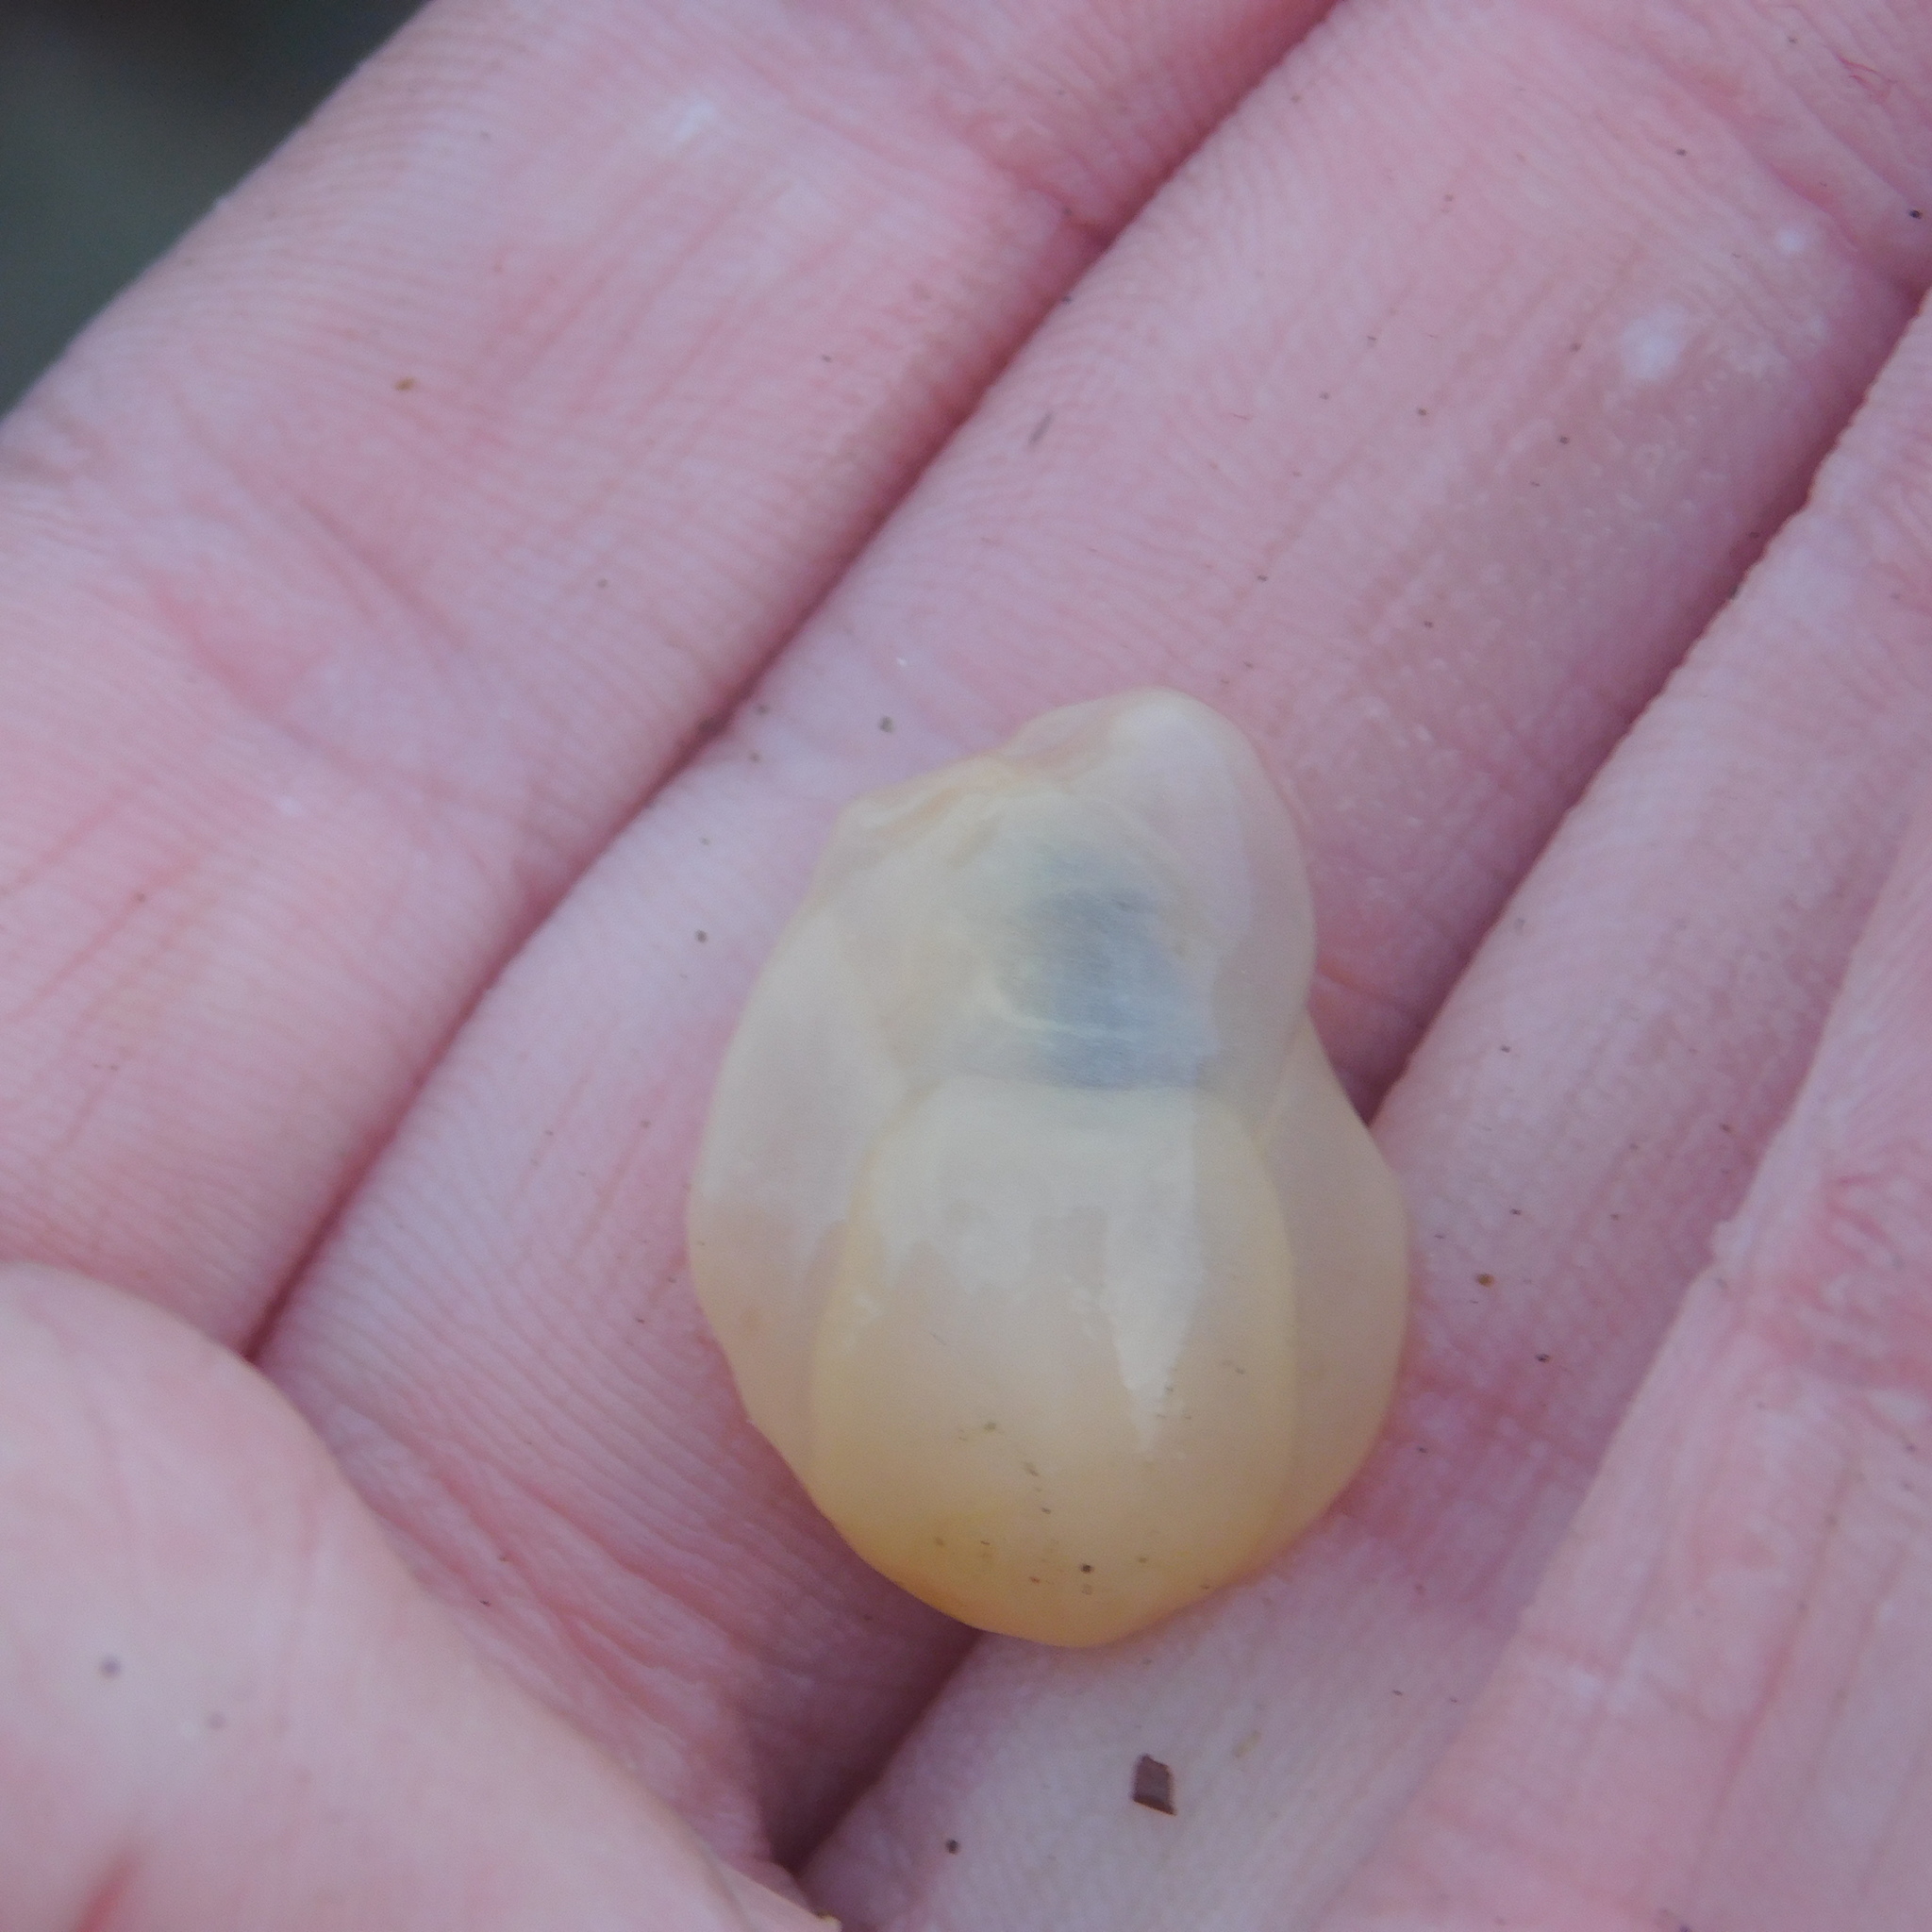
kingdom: Animalia
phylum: Mollusca
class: Gastropoda
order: Cephalaspidea
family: Philinidae
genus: Philine
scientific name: Philine
